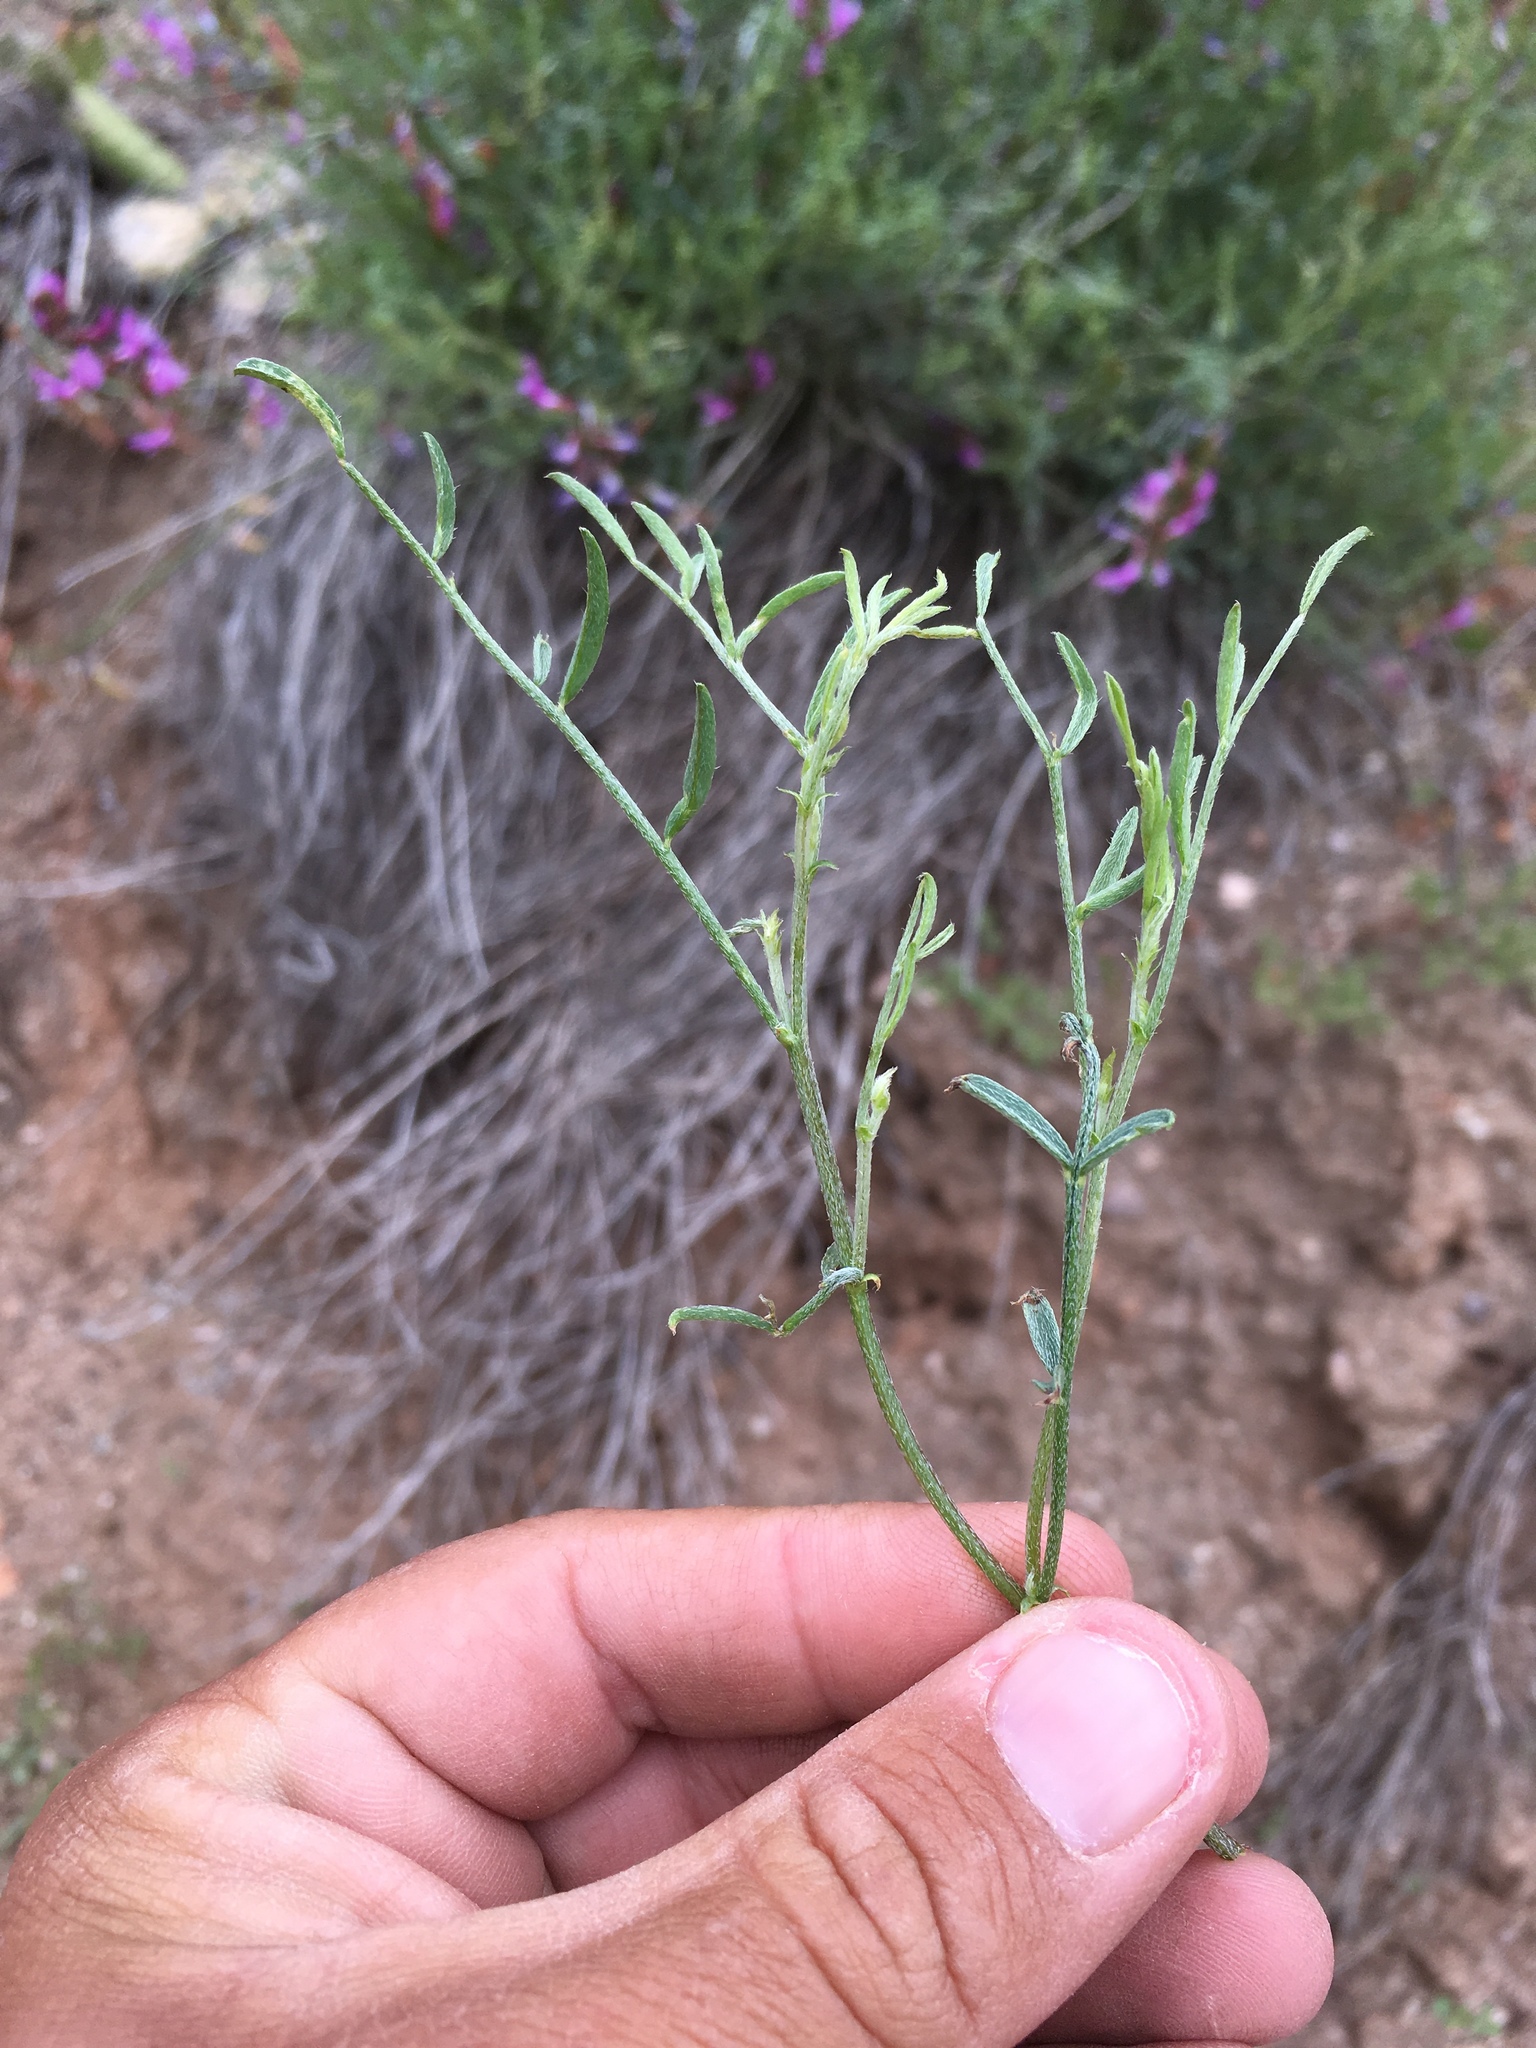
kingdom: Plantae
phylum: Tracheophyta
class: Magnoliopsida
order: Fabales
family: Fabaceae
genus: Astragalus
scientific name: Astragalus coltonii
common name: Colton's milkvetch
